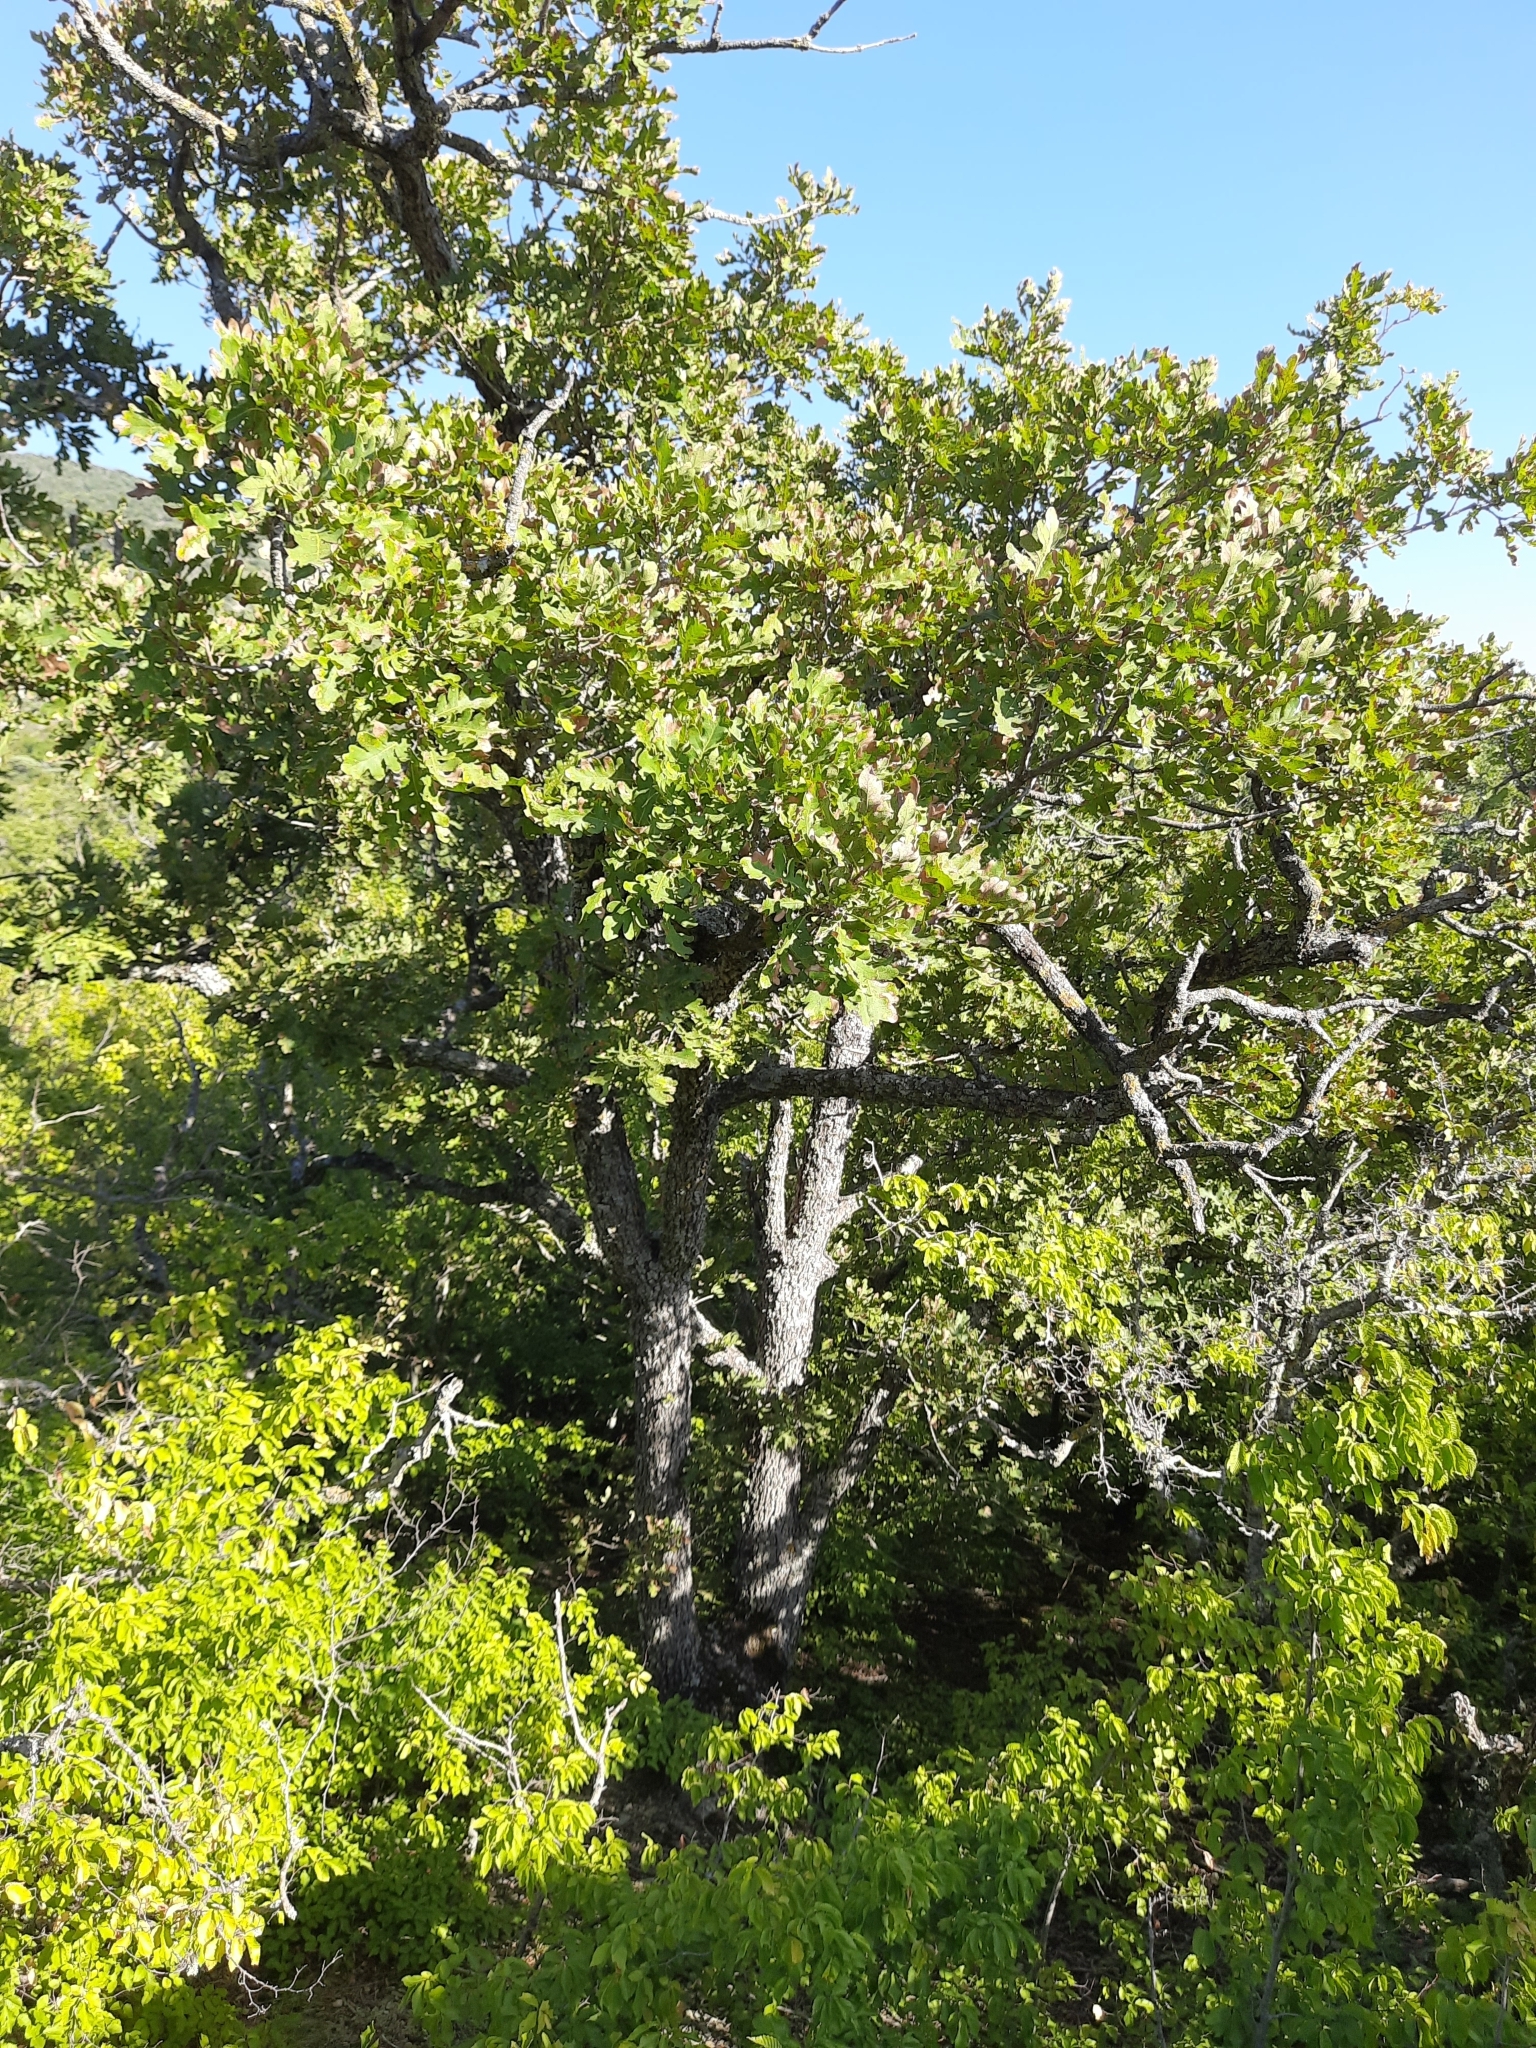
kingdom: Plantae
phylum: Tracheophyta
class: Magnoliopsida
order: Fagales
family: Fagaceae
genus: Quercus
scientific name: Quercus pubescens
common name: Downy oak
